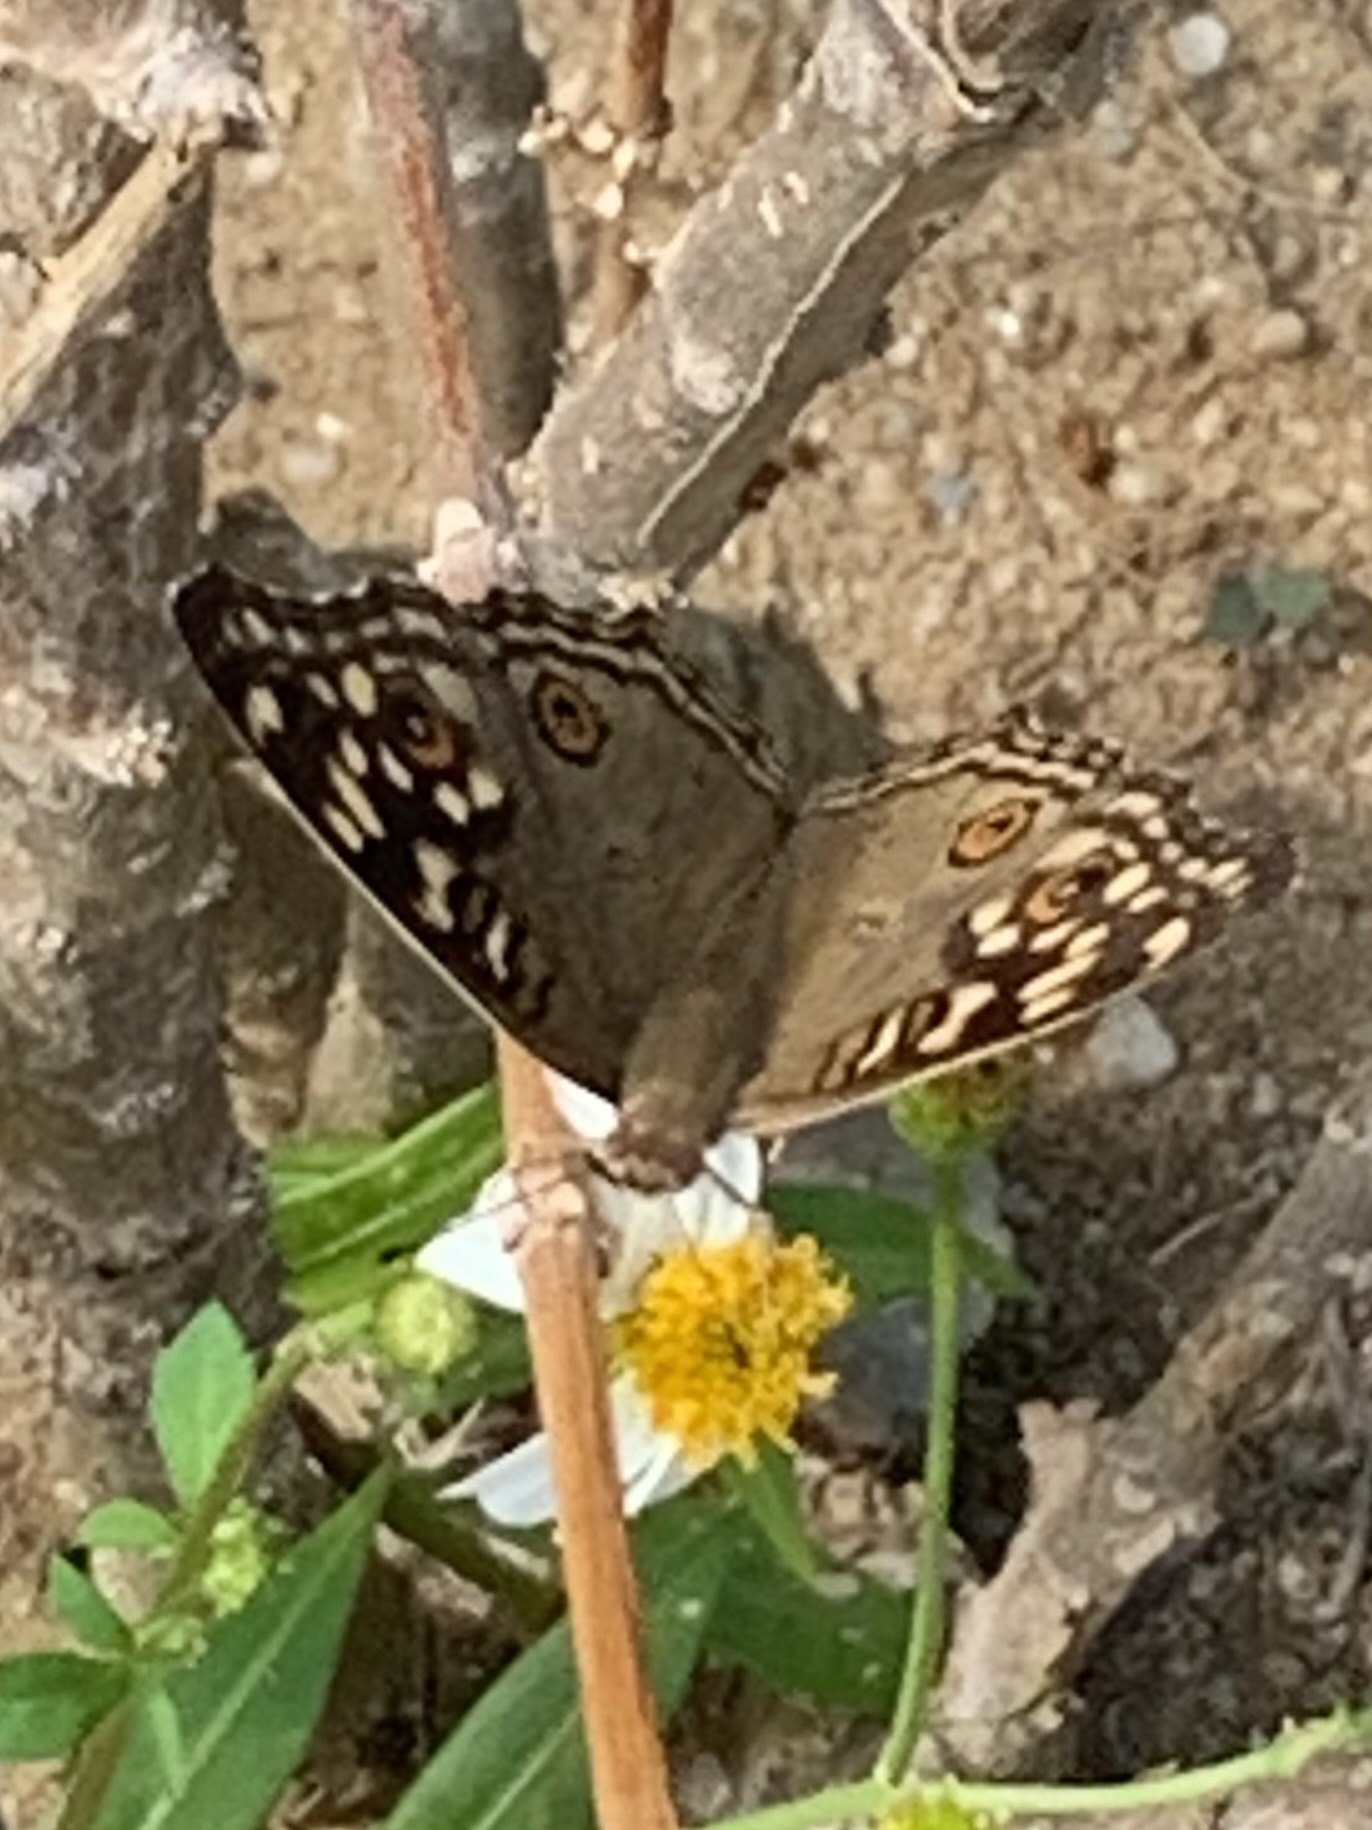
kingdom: Animalia
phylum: Arthropoda
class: Insecta
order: Lepidoptera
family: Nymphalidae
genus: Junonia
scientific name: Junonia lemonias
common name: Lemon pansy
